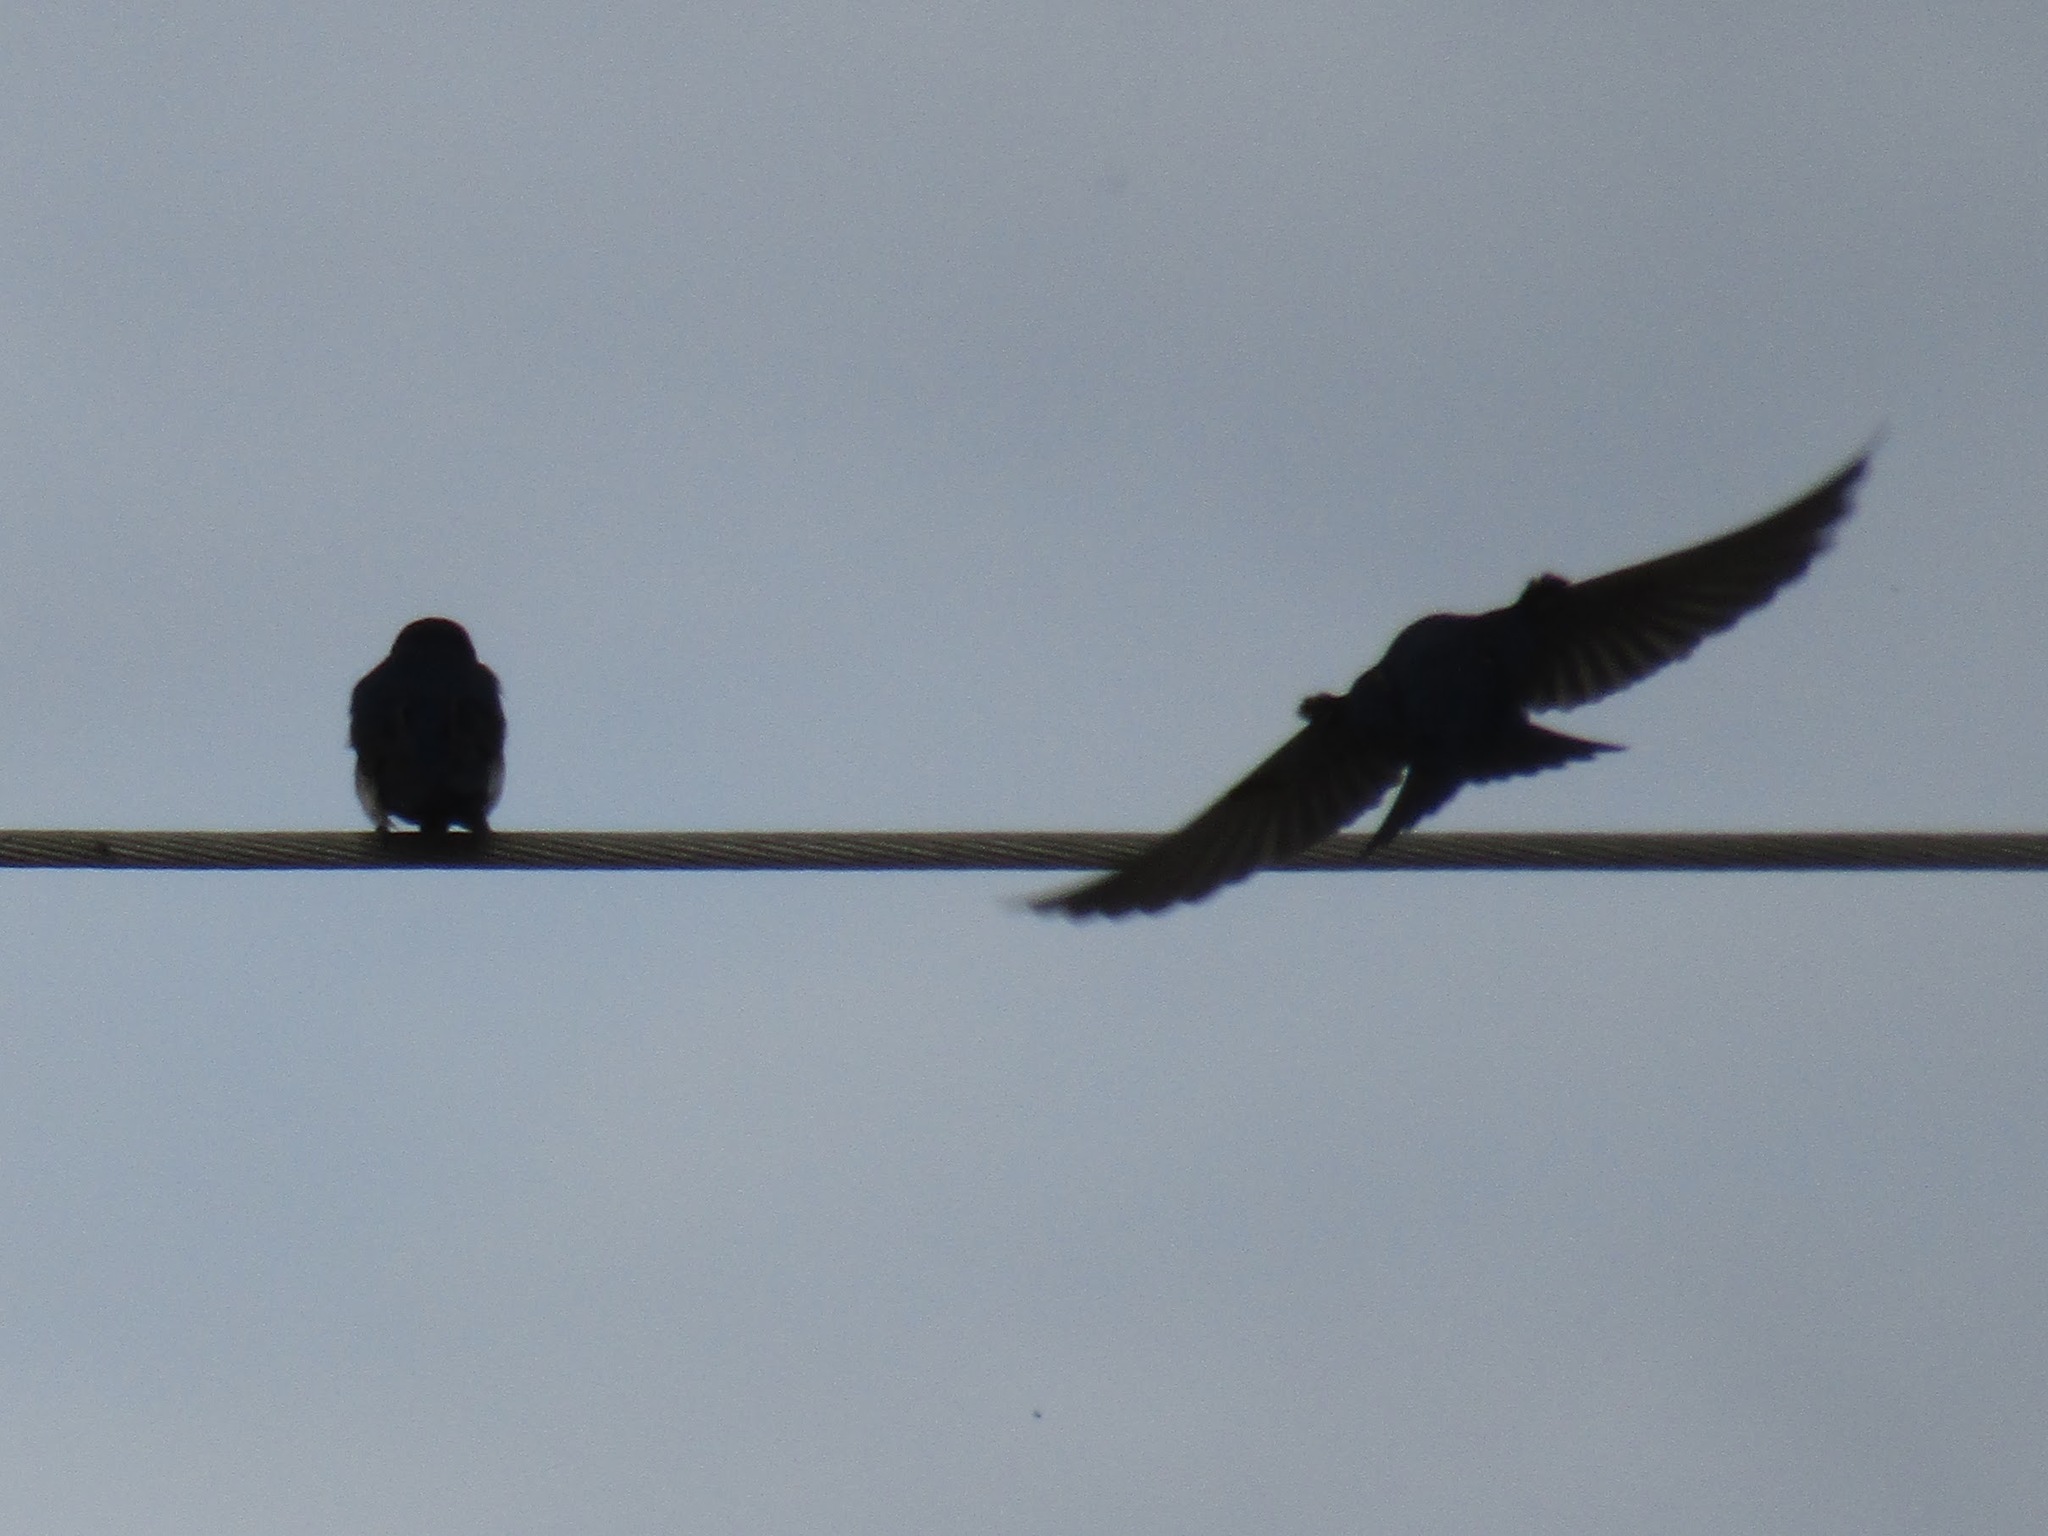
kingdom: Animalia
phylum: Chordata
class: Aves
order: Passeriformes
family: Hirundinidae
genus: Notiochelidon
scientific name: Notiochelidon cyanoleuca
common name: Blue-and-white swallow
